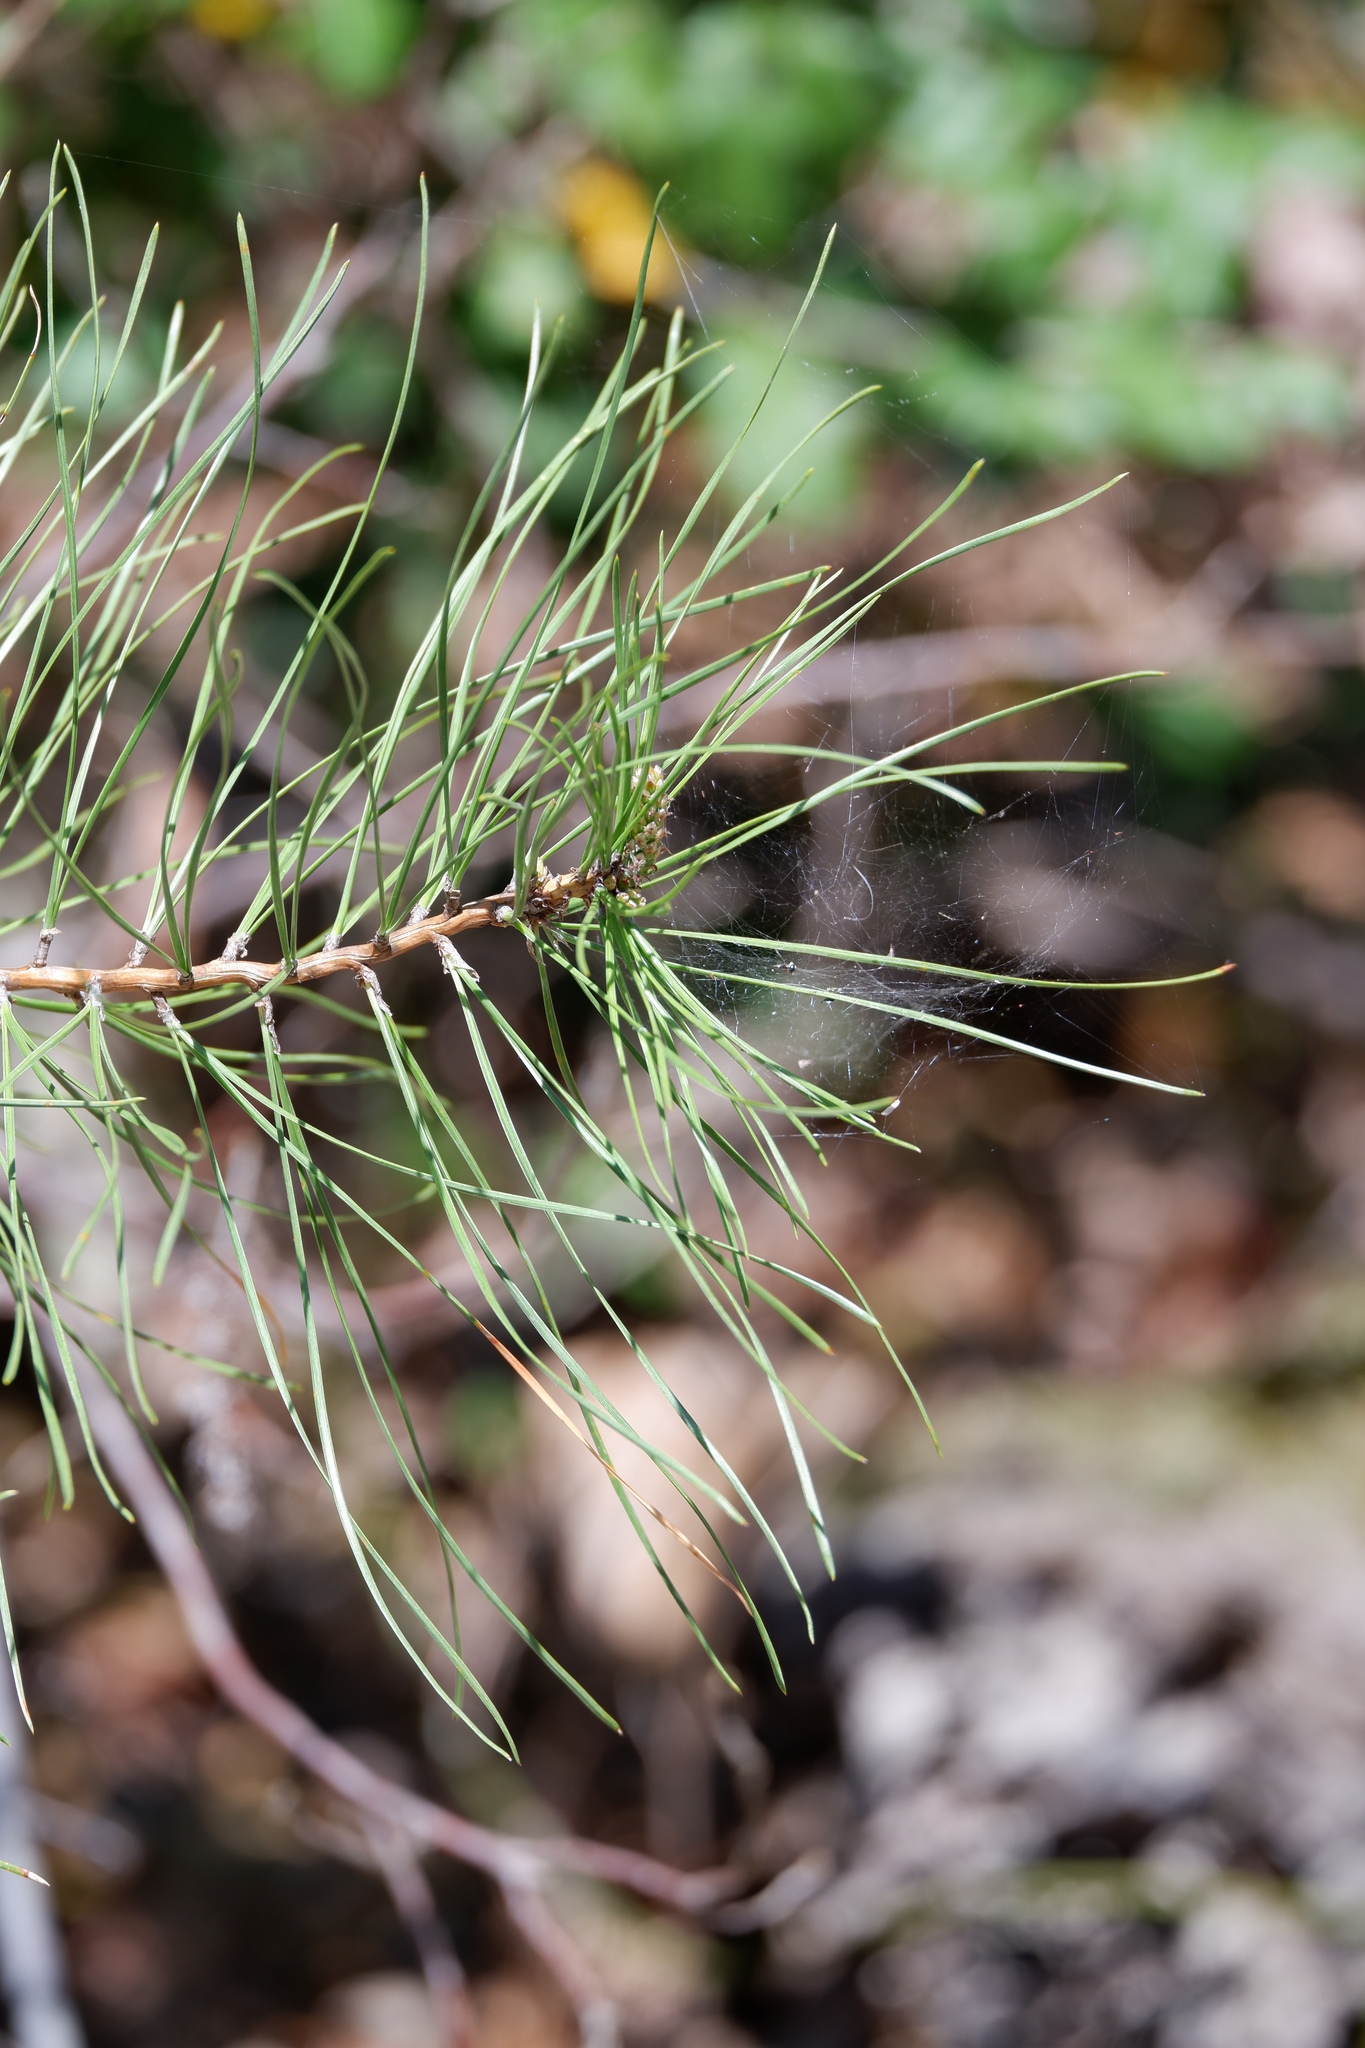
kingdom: Plantae
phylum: Tracheophyta
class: Pinopsida
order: Pinales
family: Pinaceae
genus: Pinus
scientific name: Pinus rigida
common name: Pitch pine
